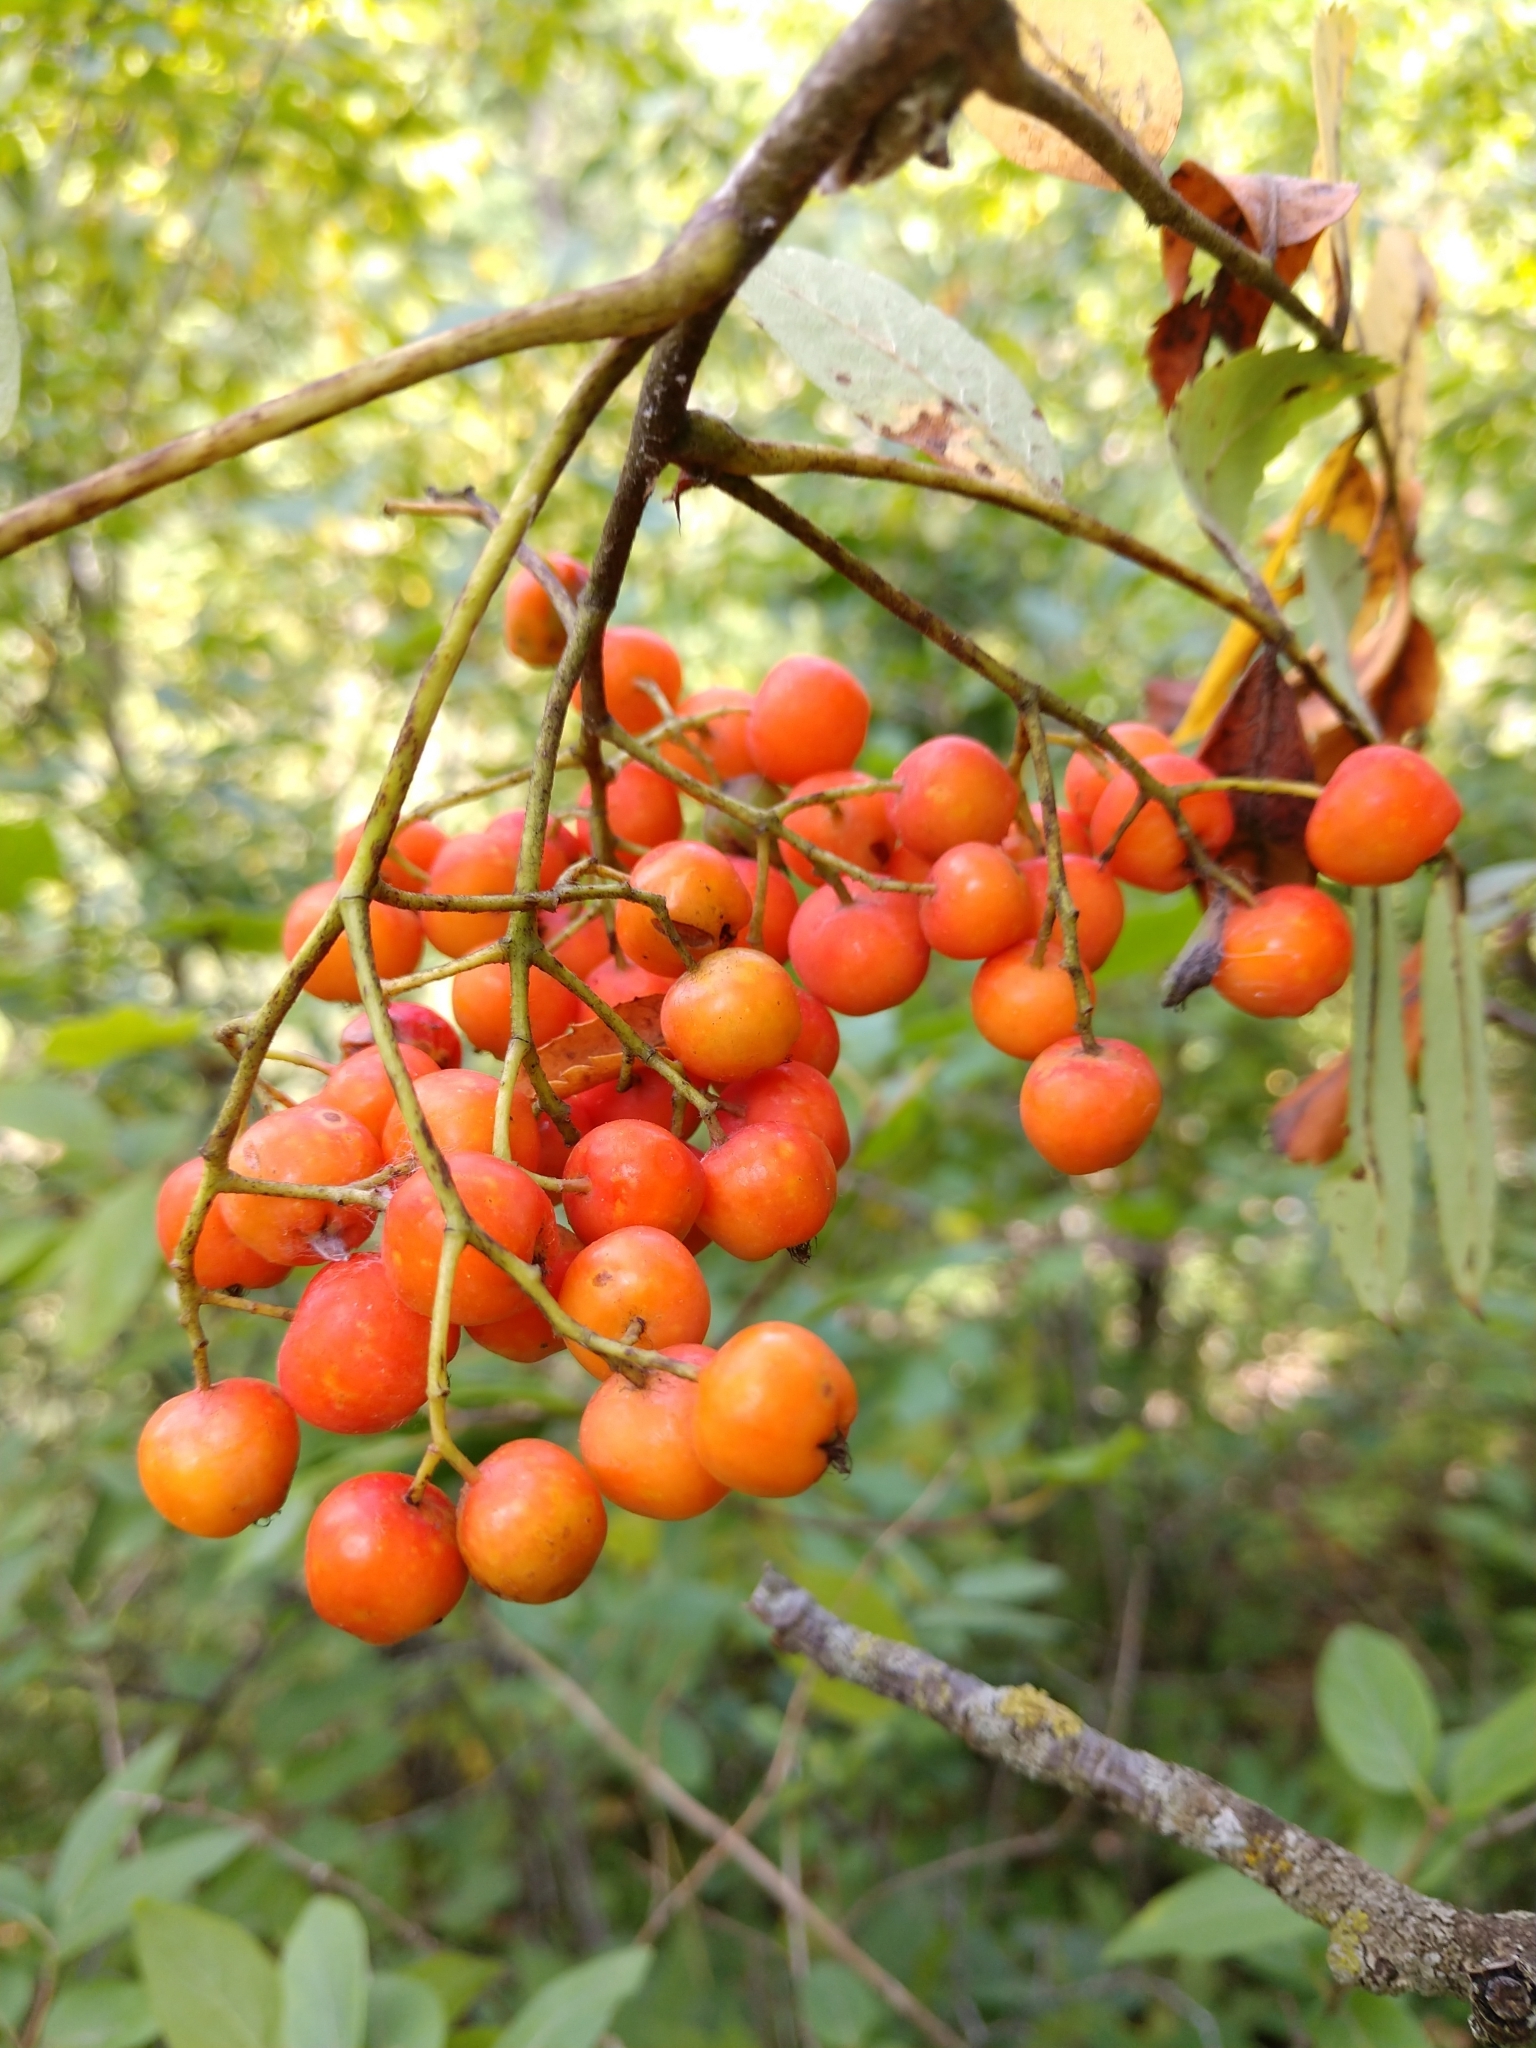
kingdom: Plantae
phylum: Tracheophyta
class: Magnoliopsida
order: Rosales
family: Rosaceae
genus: Sorbus
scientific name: Sorbus aucuparia
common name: Rowan
